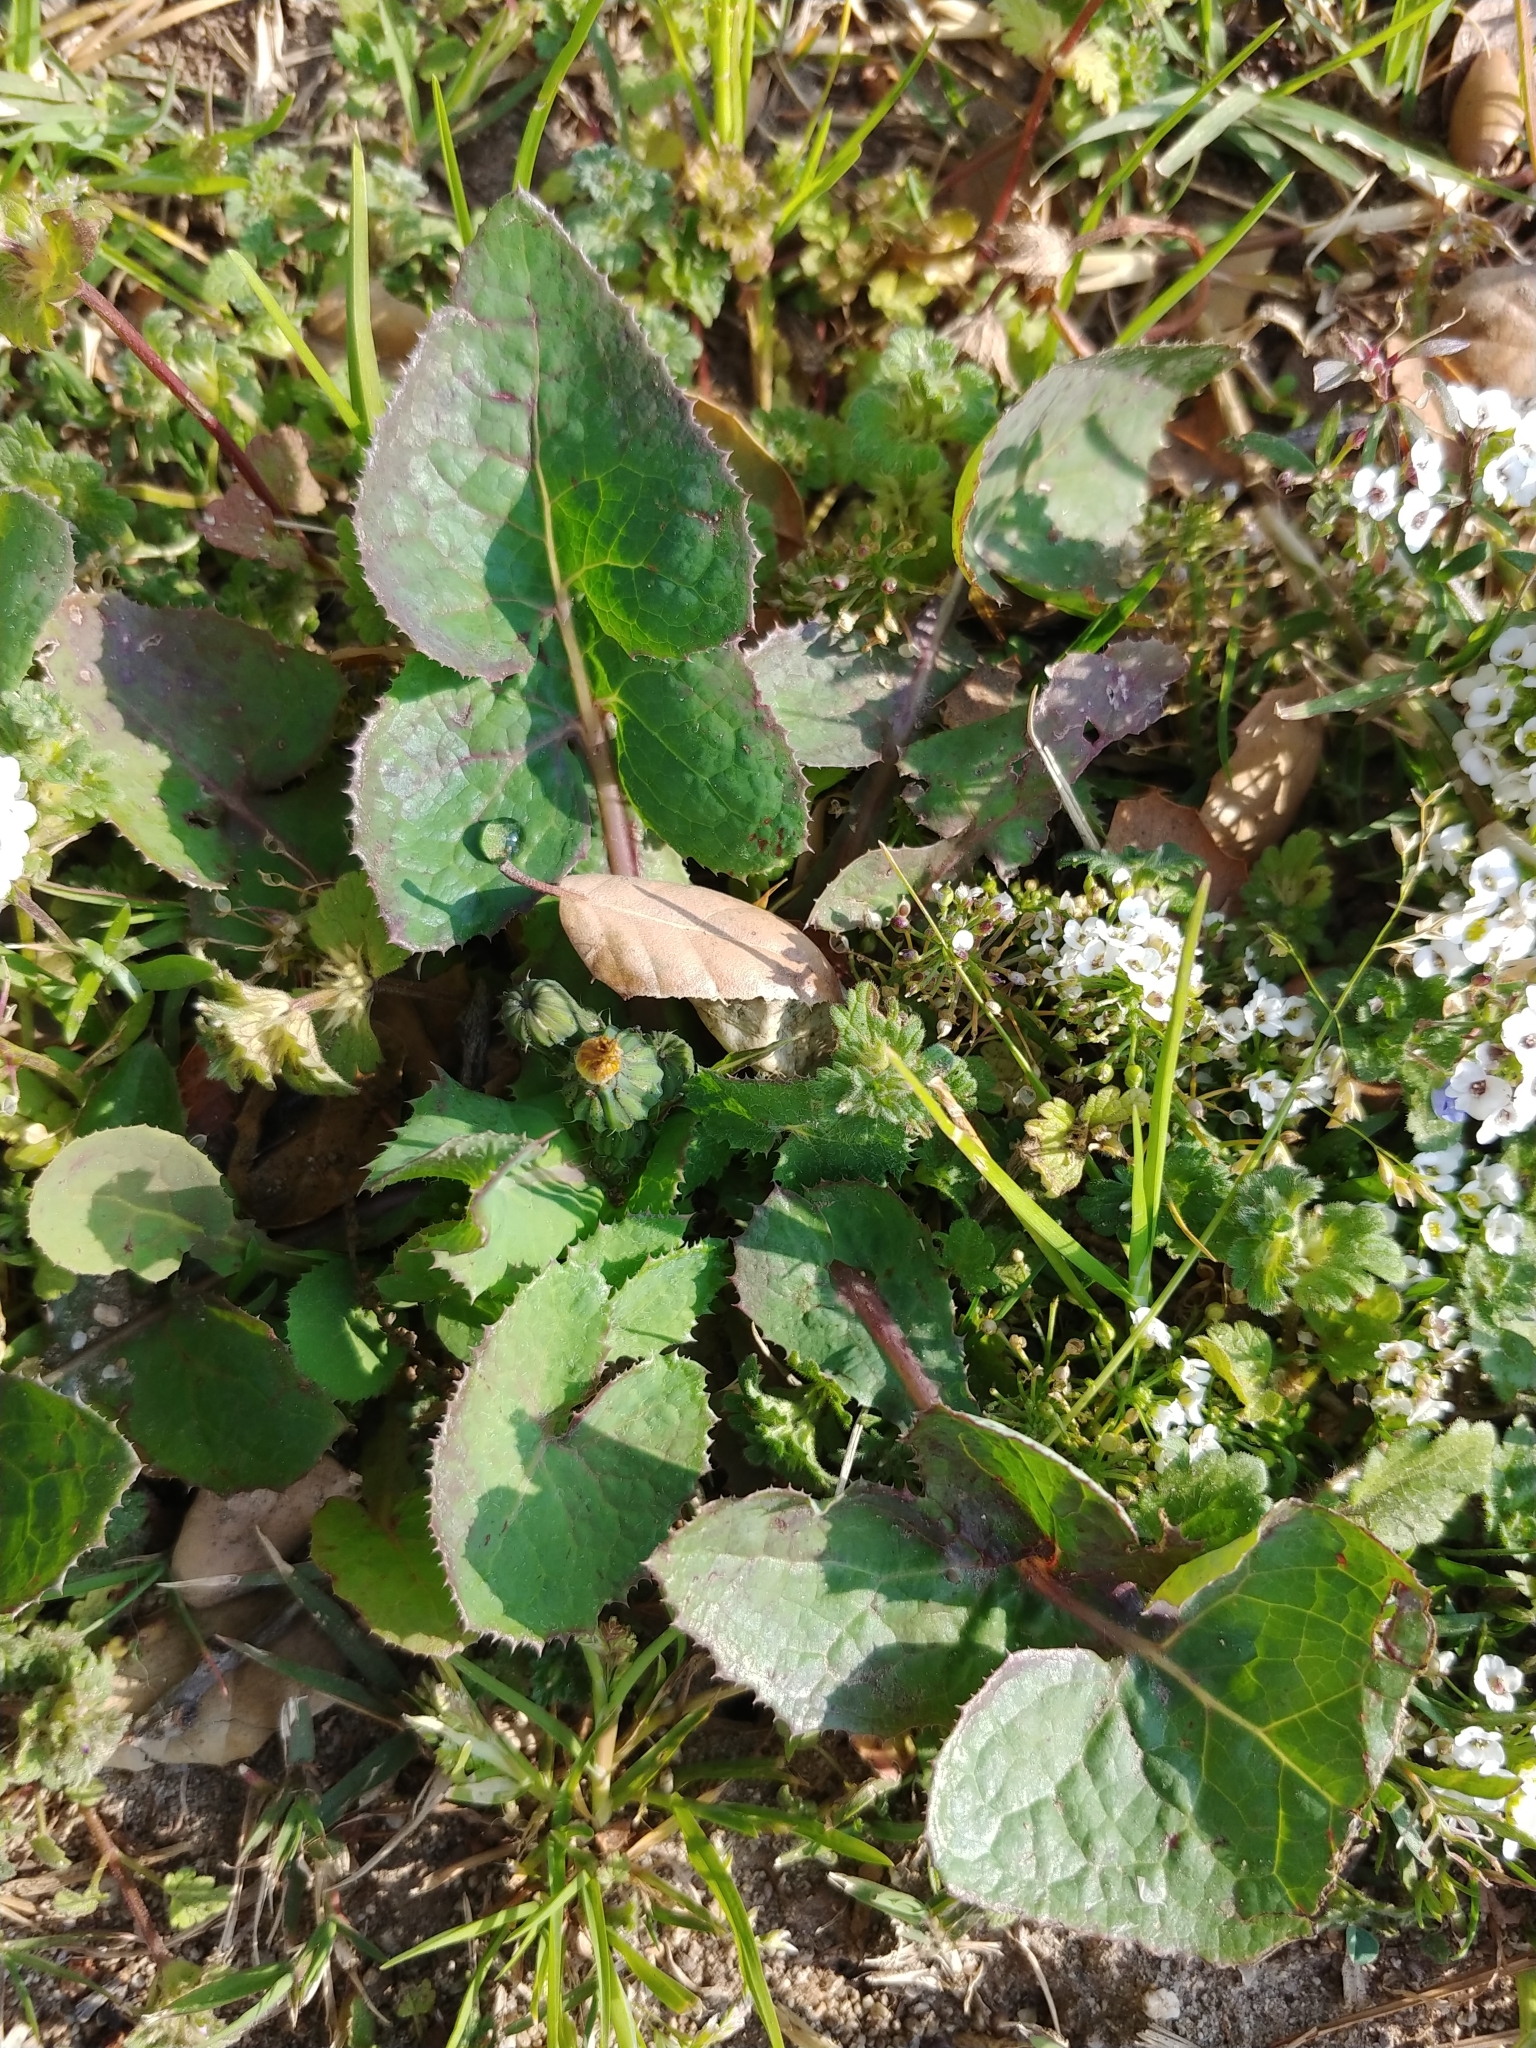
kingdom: Plantae
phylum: Tracheophyta
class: Magnoliopsida
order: Asterales
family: Asteraceae
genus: Sonchus
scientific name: Sonchus oleraceus
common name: Common sowthistle
